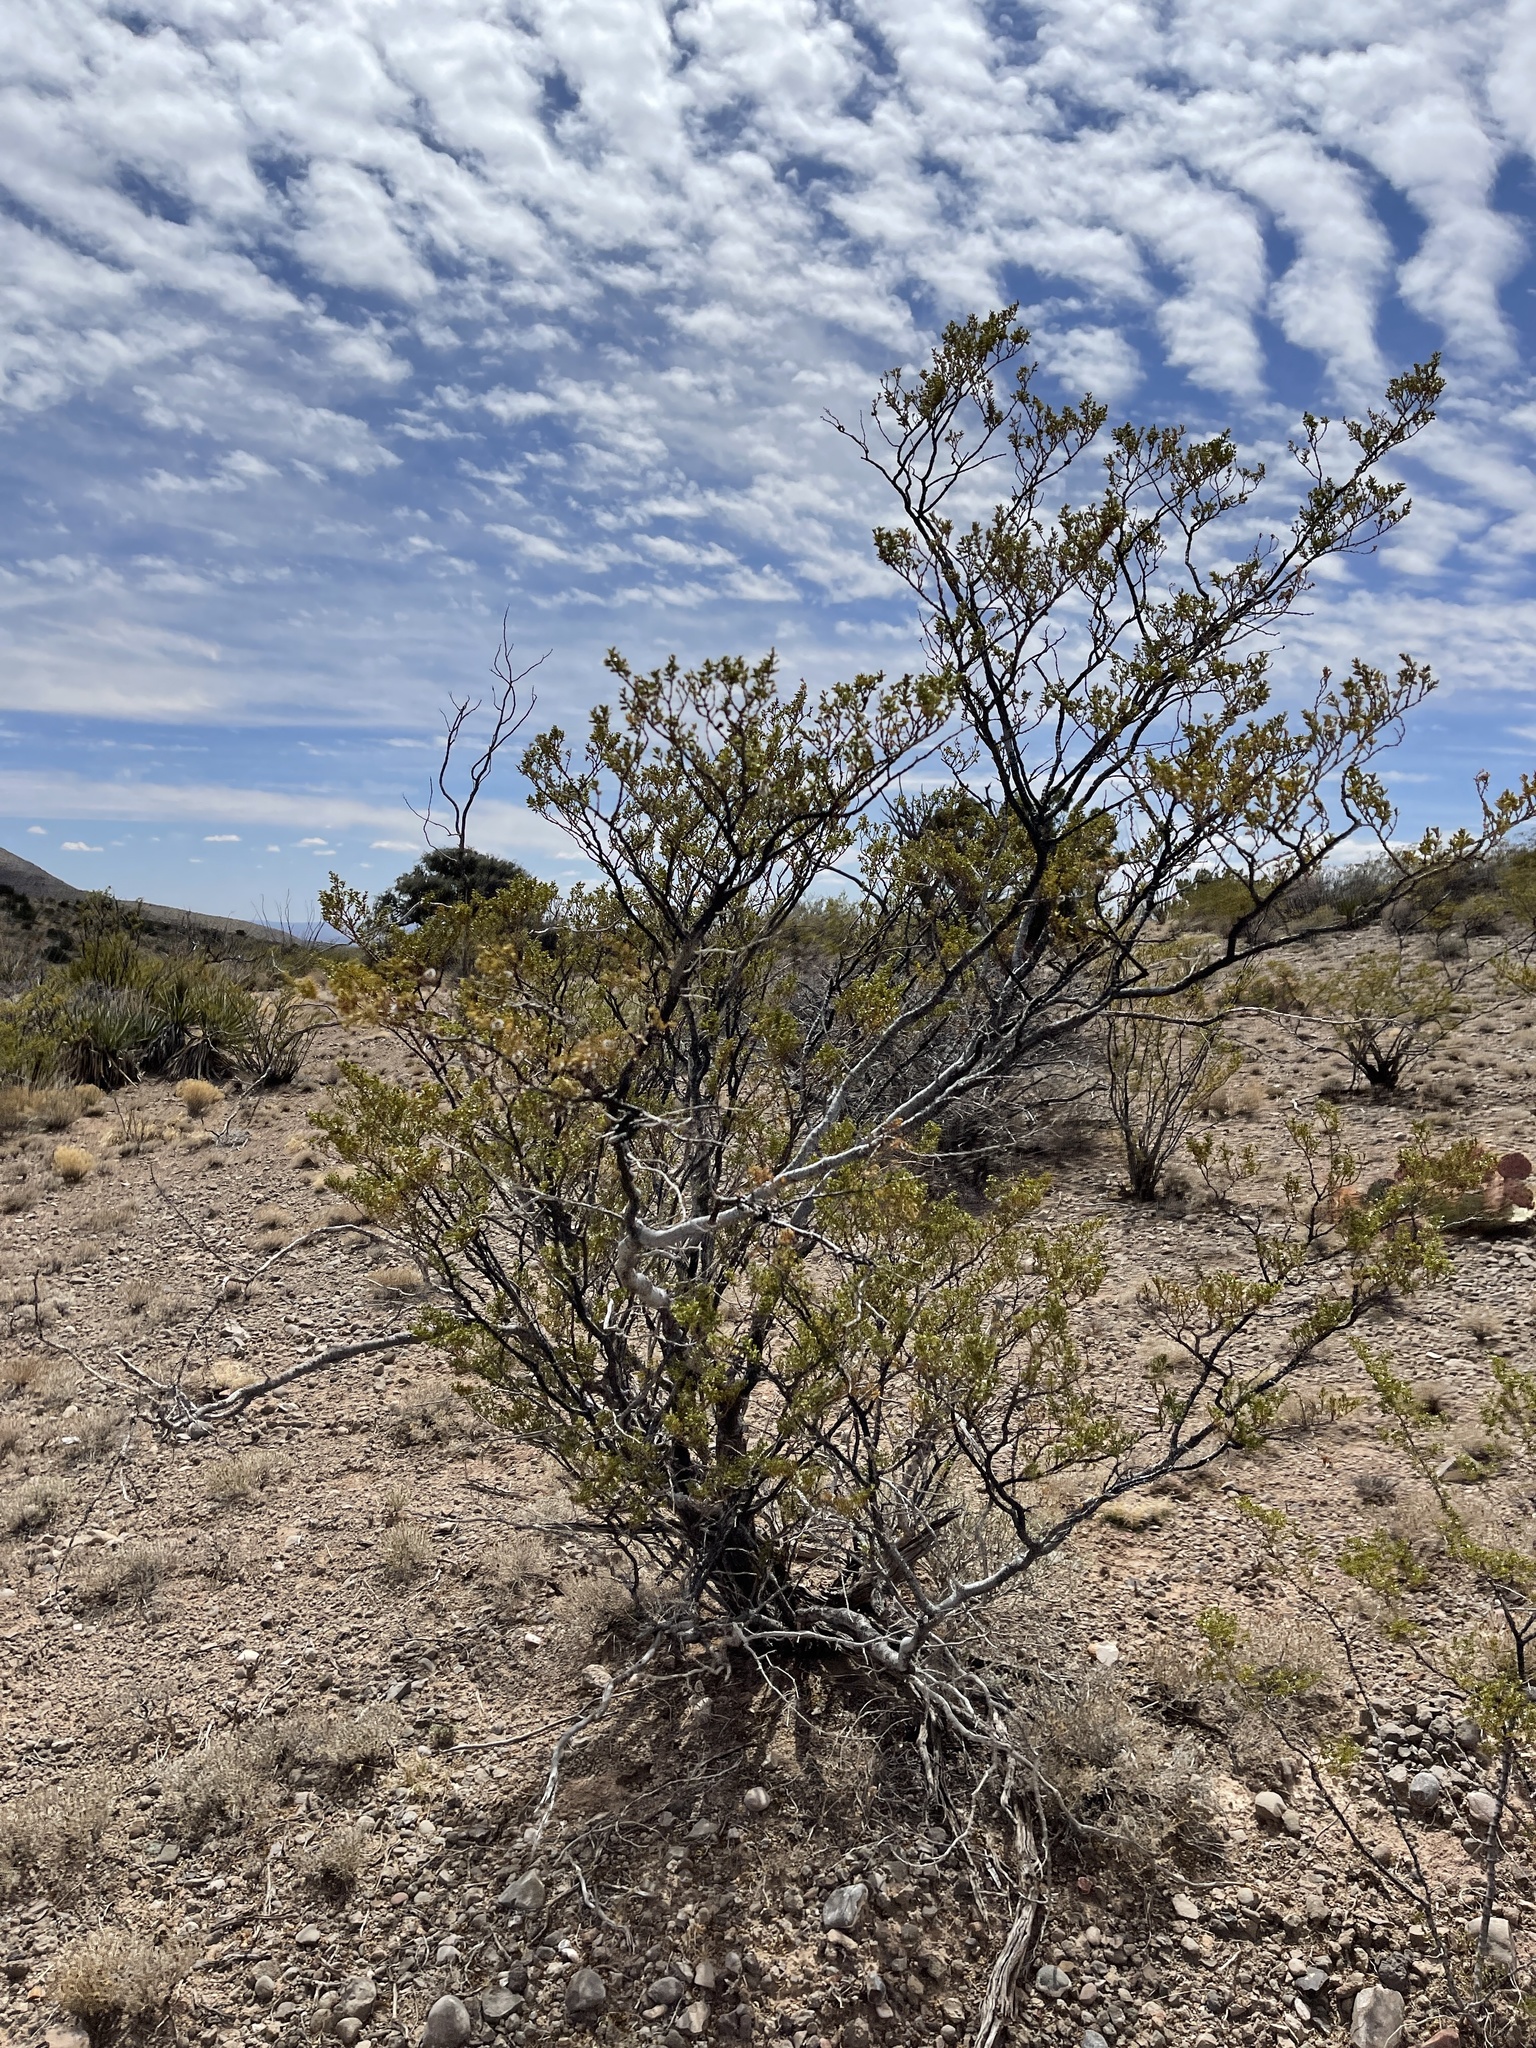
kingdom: Plantae
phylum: Tracheophyta
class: Magnoliopsida
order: Zygophyllales
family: Zygophyllaceae
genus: Larrea
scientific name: Larrea tridentata
